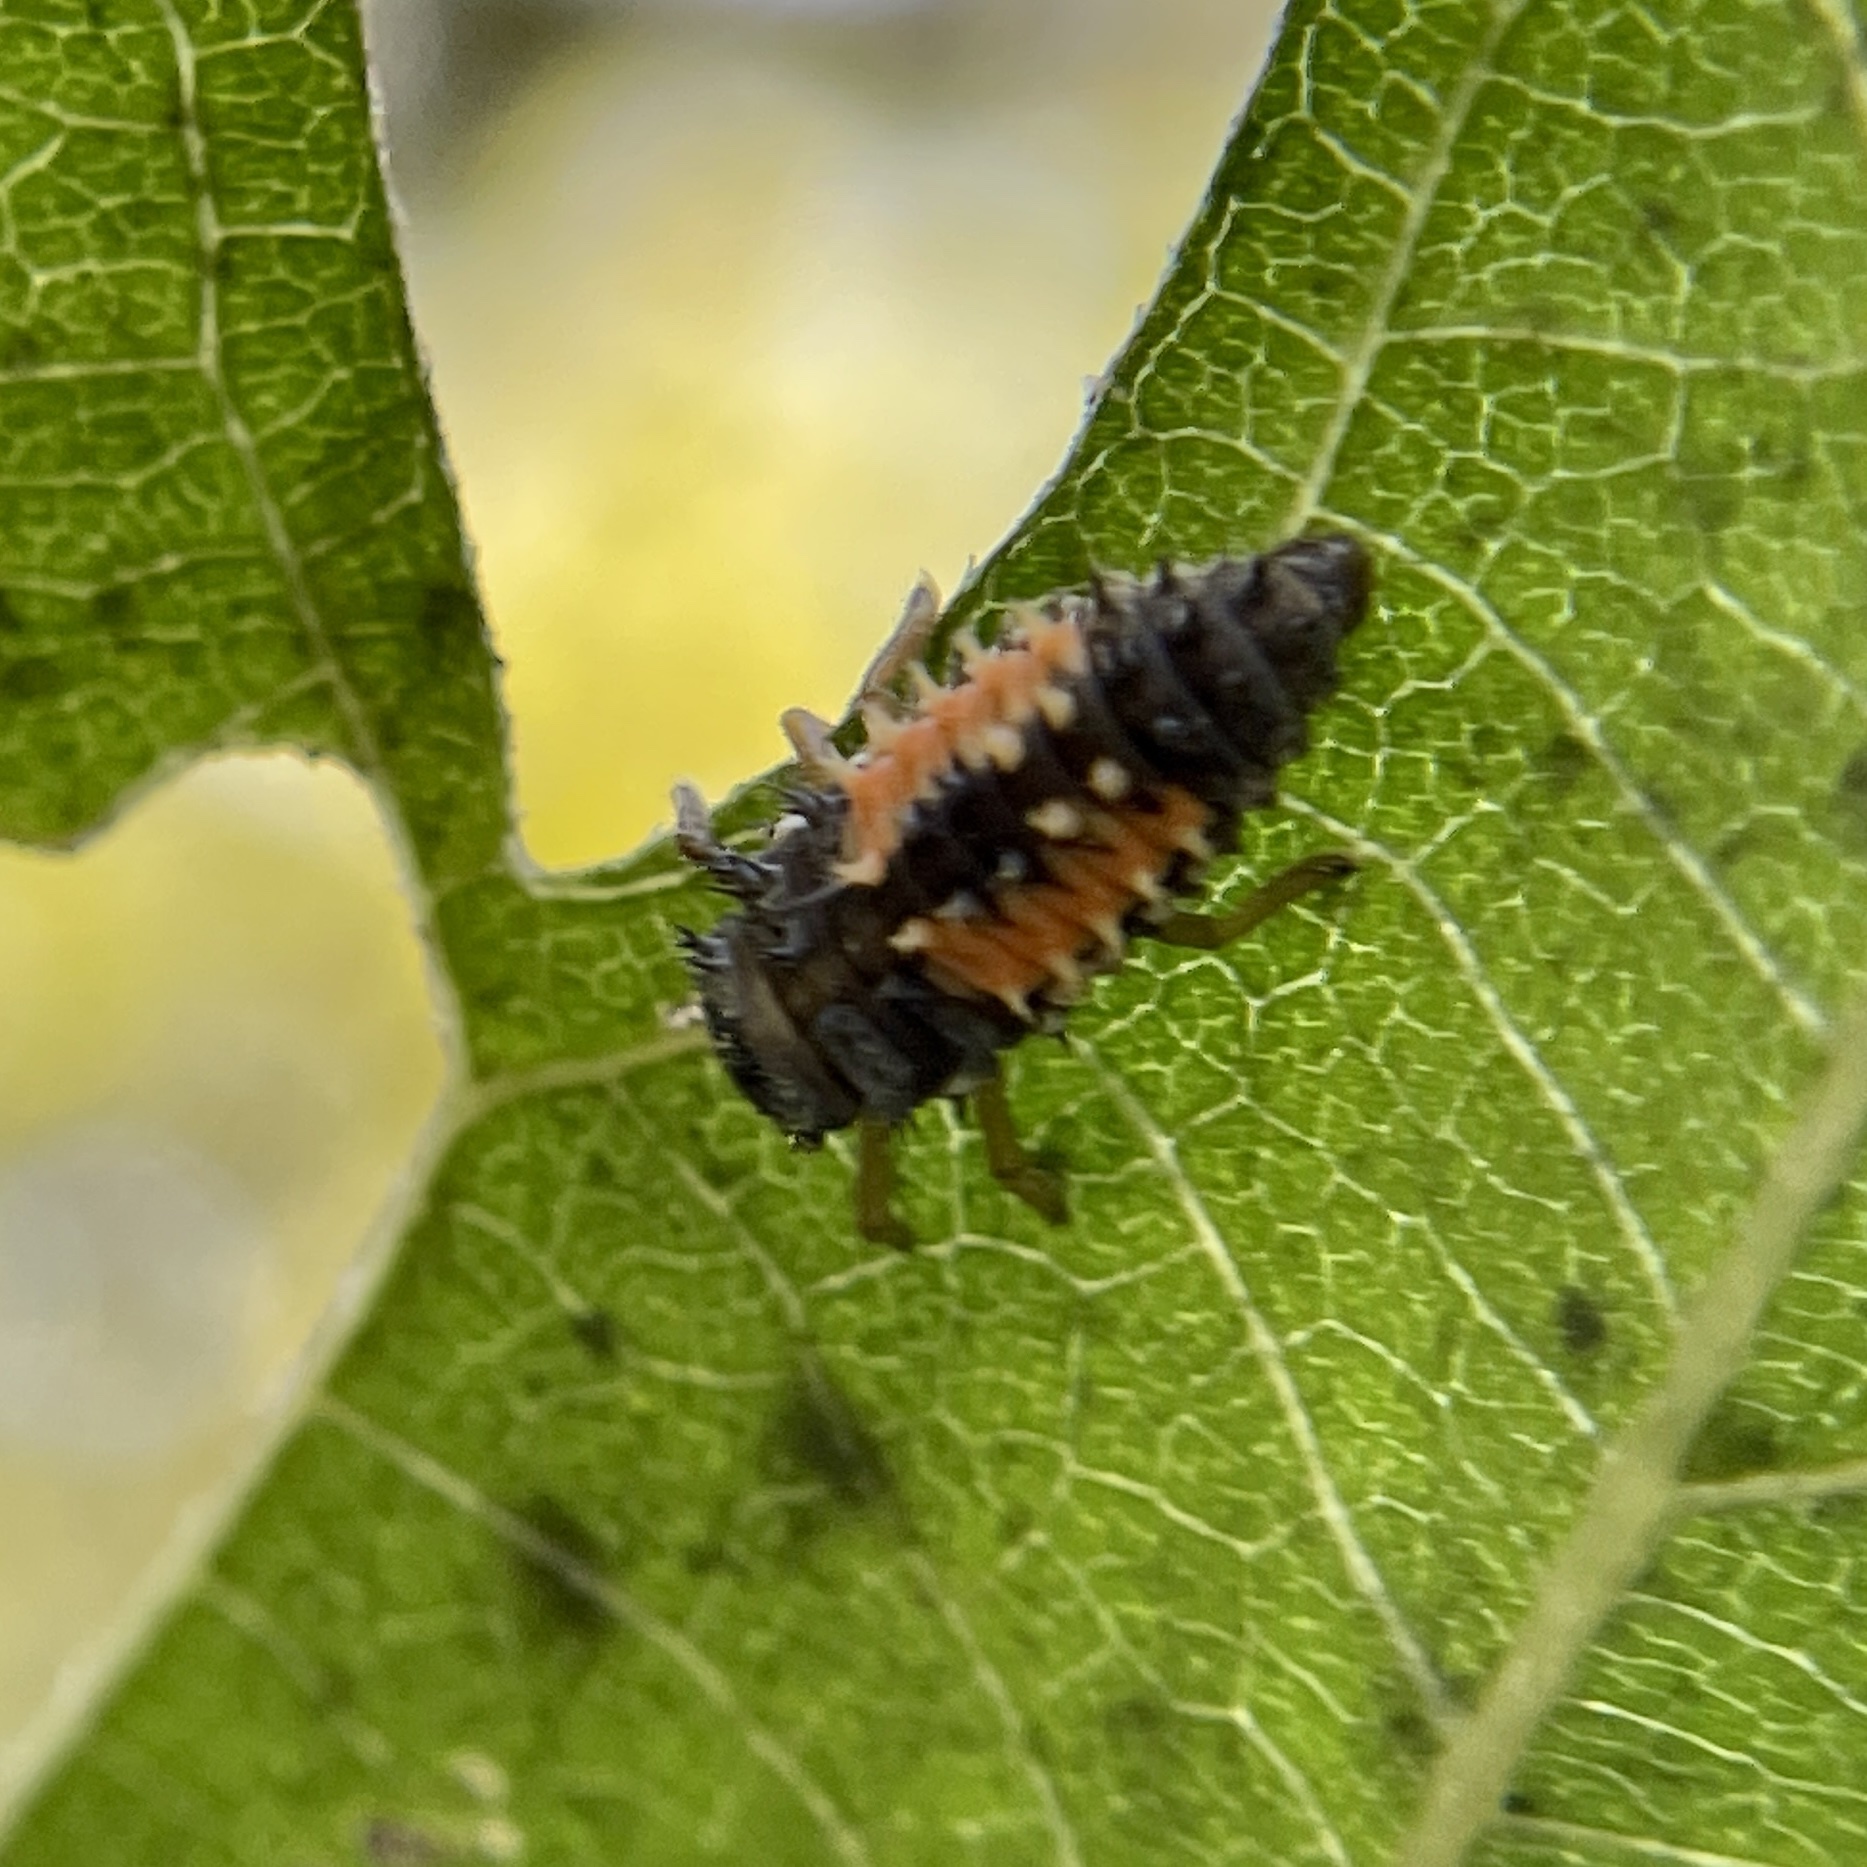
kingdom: Animalia
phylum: Arthropoda
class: Insecta
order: Coleoptera
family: Coccinellidae
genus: Harmonia
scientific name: Harmonia axyridis
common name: Harlequin ladybird
